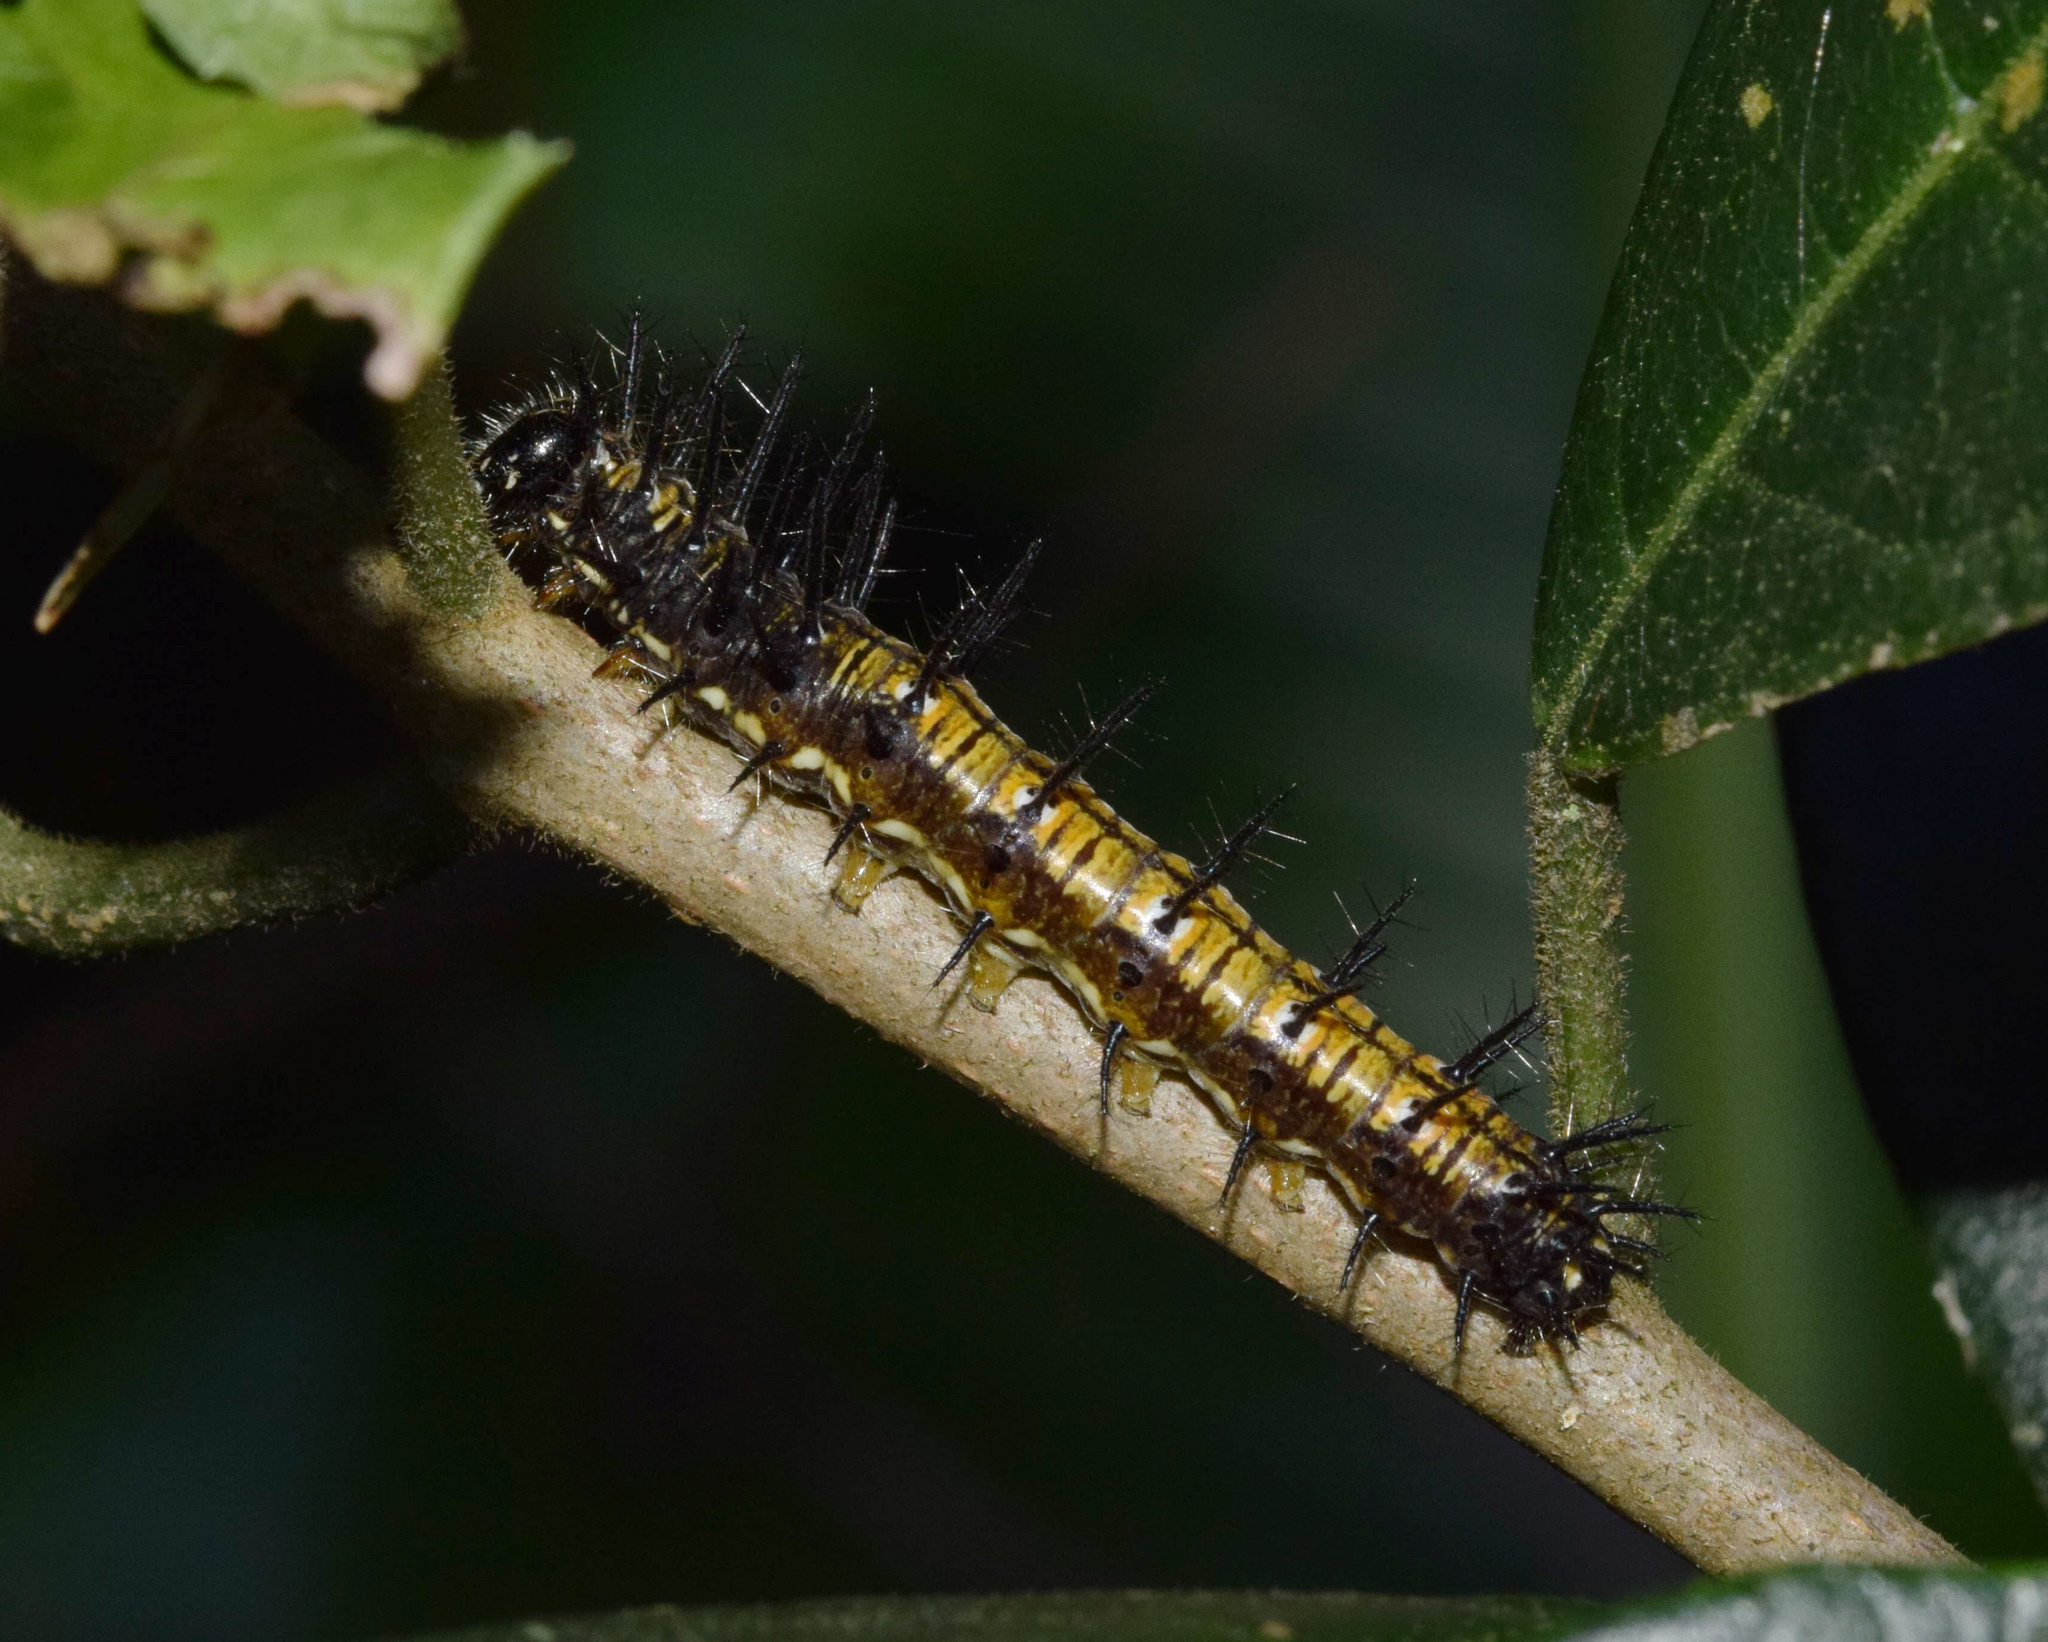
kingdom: Animalia
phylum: Arthropoda
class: Insecta
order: Lepidoptera
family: Nymphalidae
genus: Rubraea
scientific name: Rubraea
